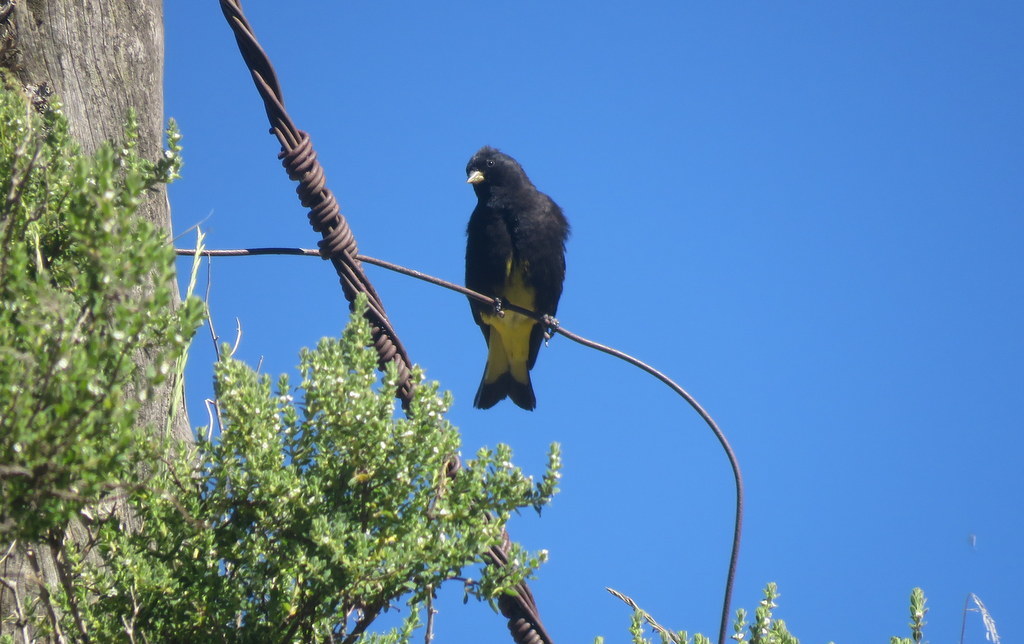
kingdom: Animalia
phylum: Chordata
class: Aves
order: Passeriformes
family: Fringillidae
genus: Spinus
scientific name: Spinus atratus
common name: Black siskin
